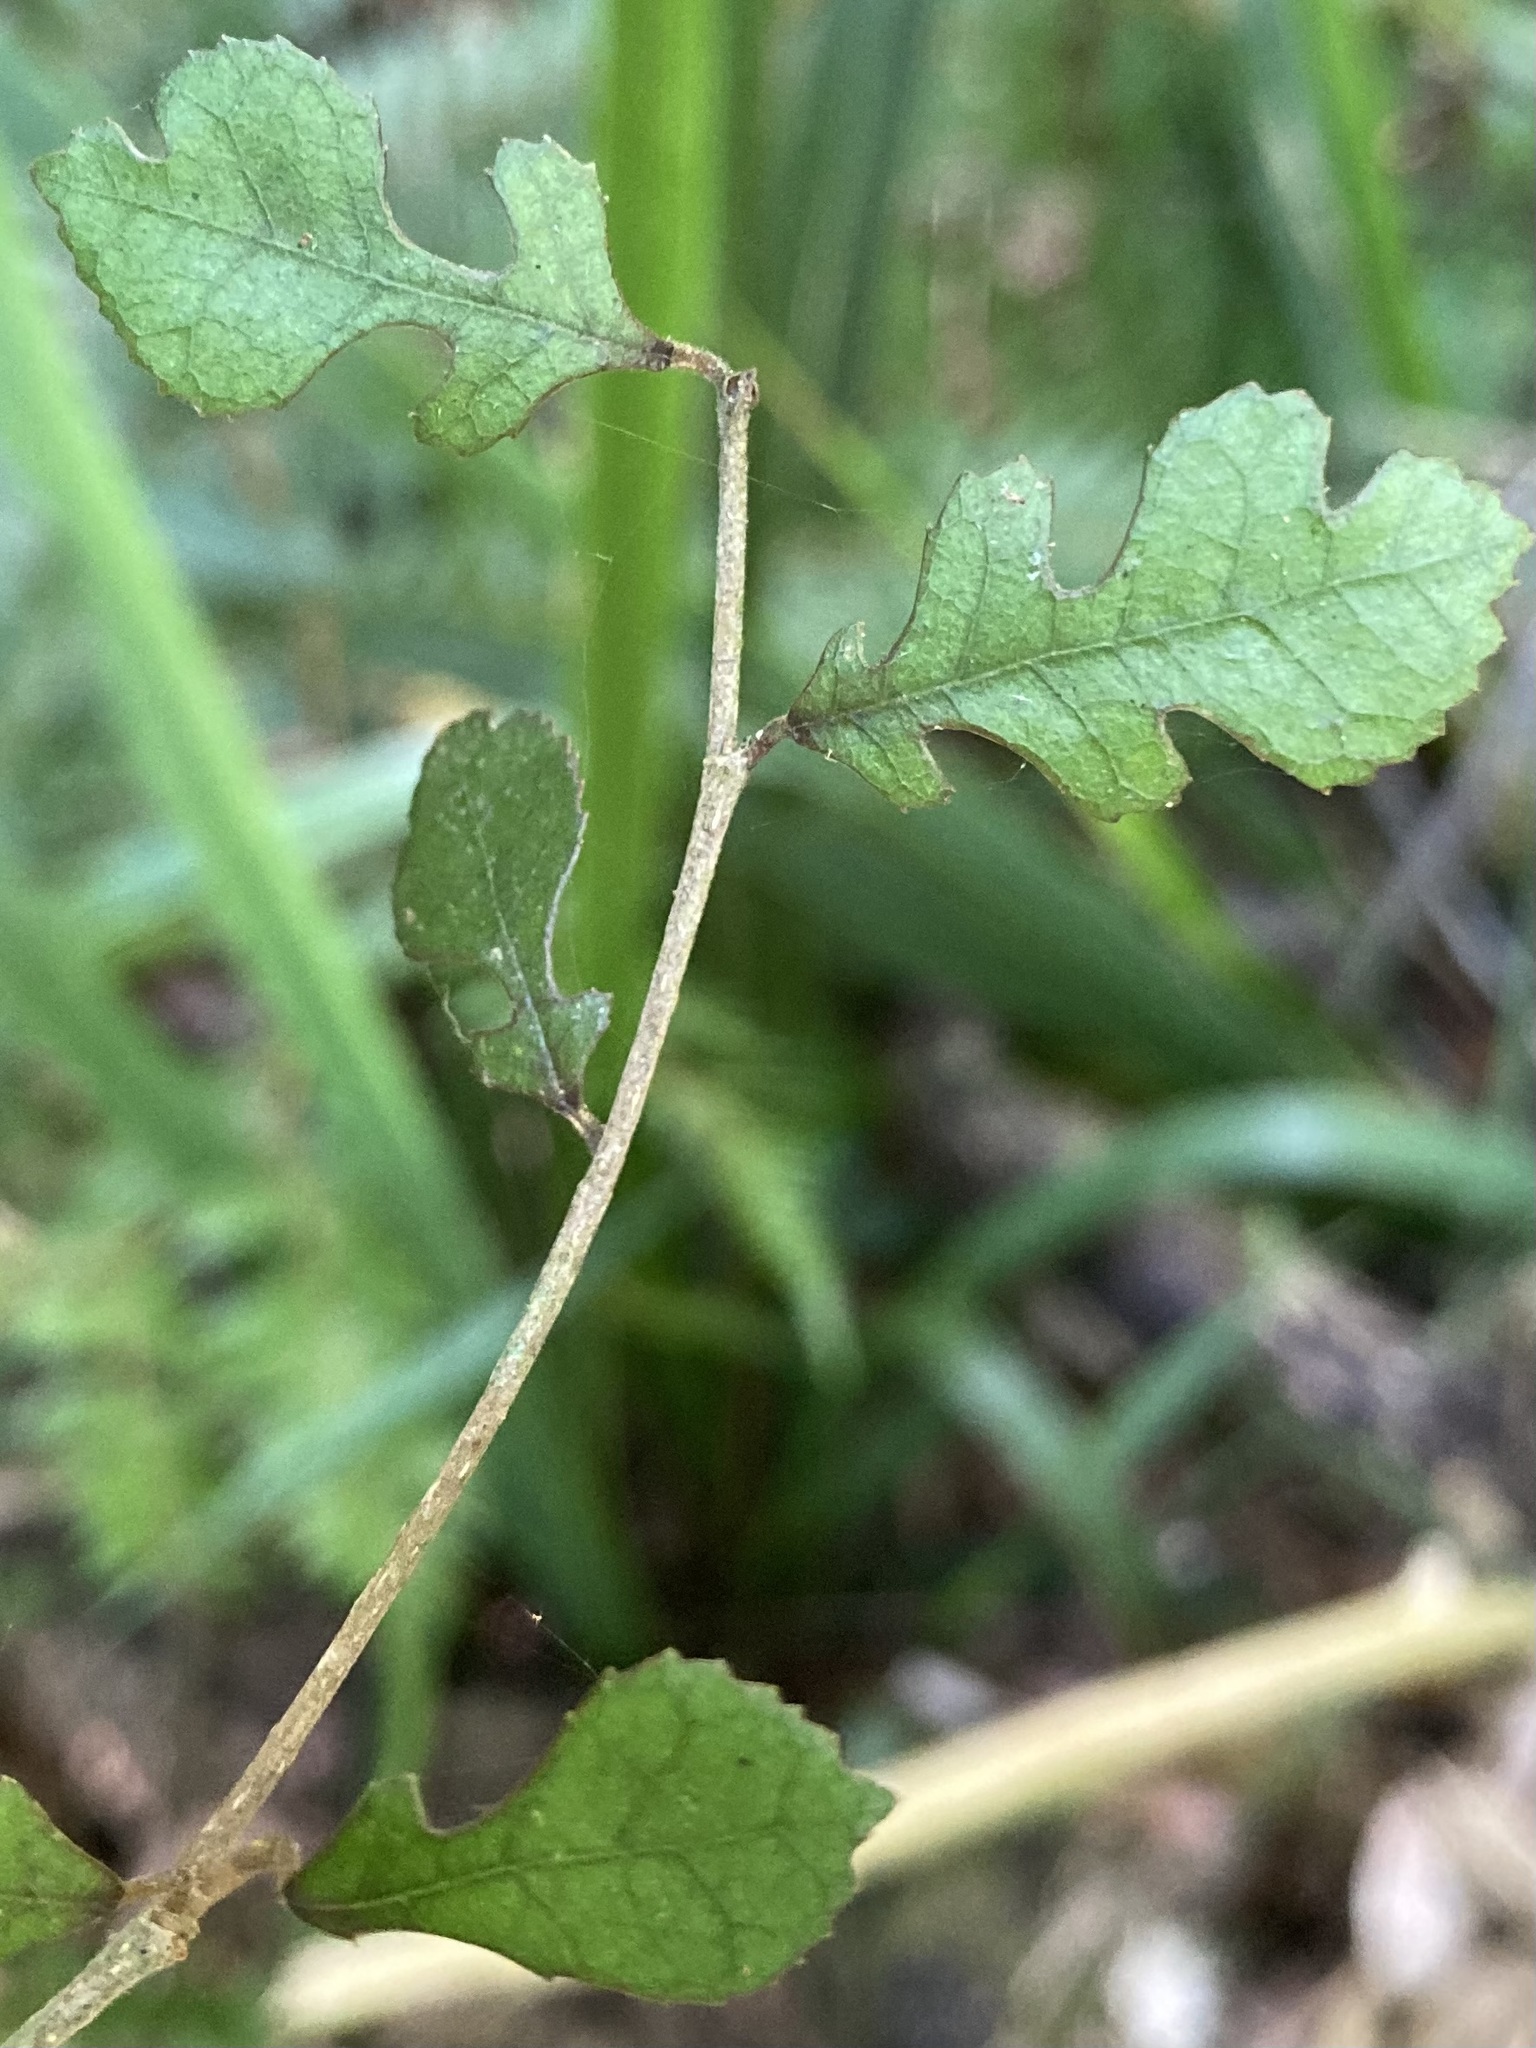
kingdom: Plantae
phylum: Tracheophyta
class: Magnoliopsida
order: Rosales
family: Moraceae
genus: Paratrophis
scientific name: Paratrophis microphylla
